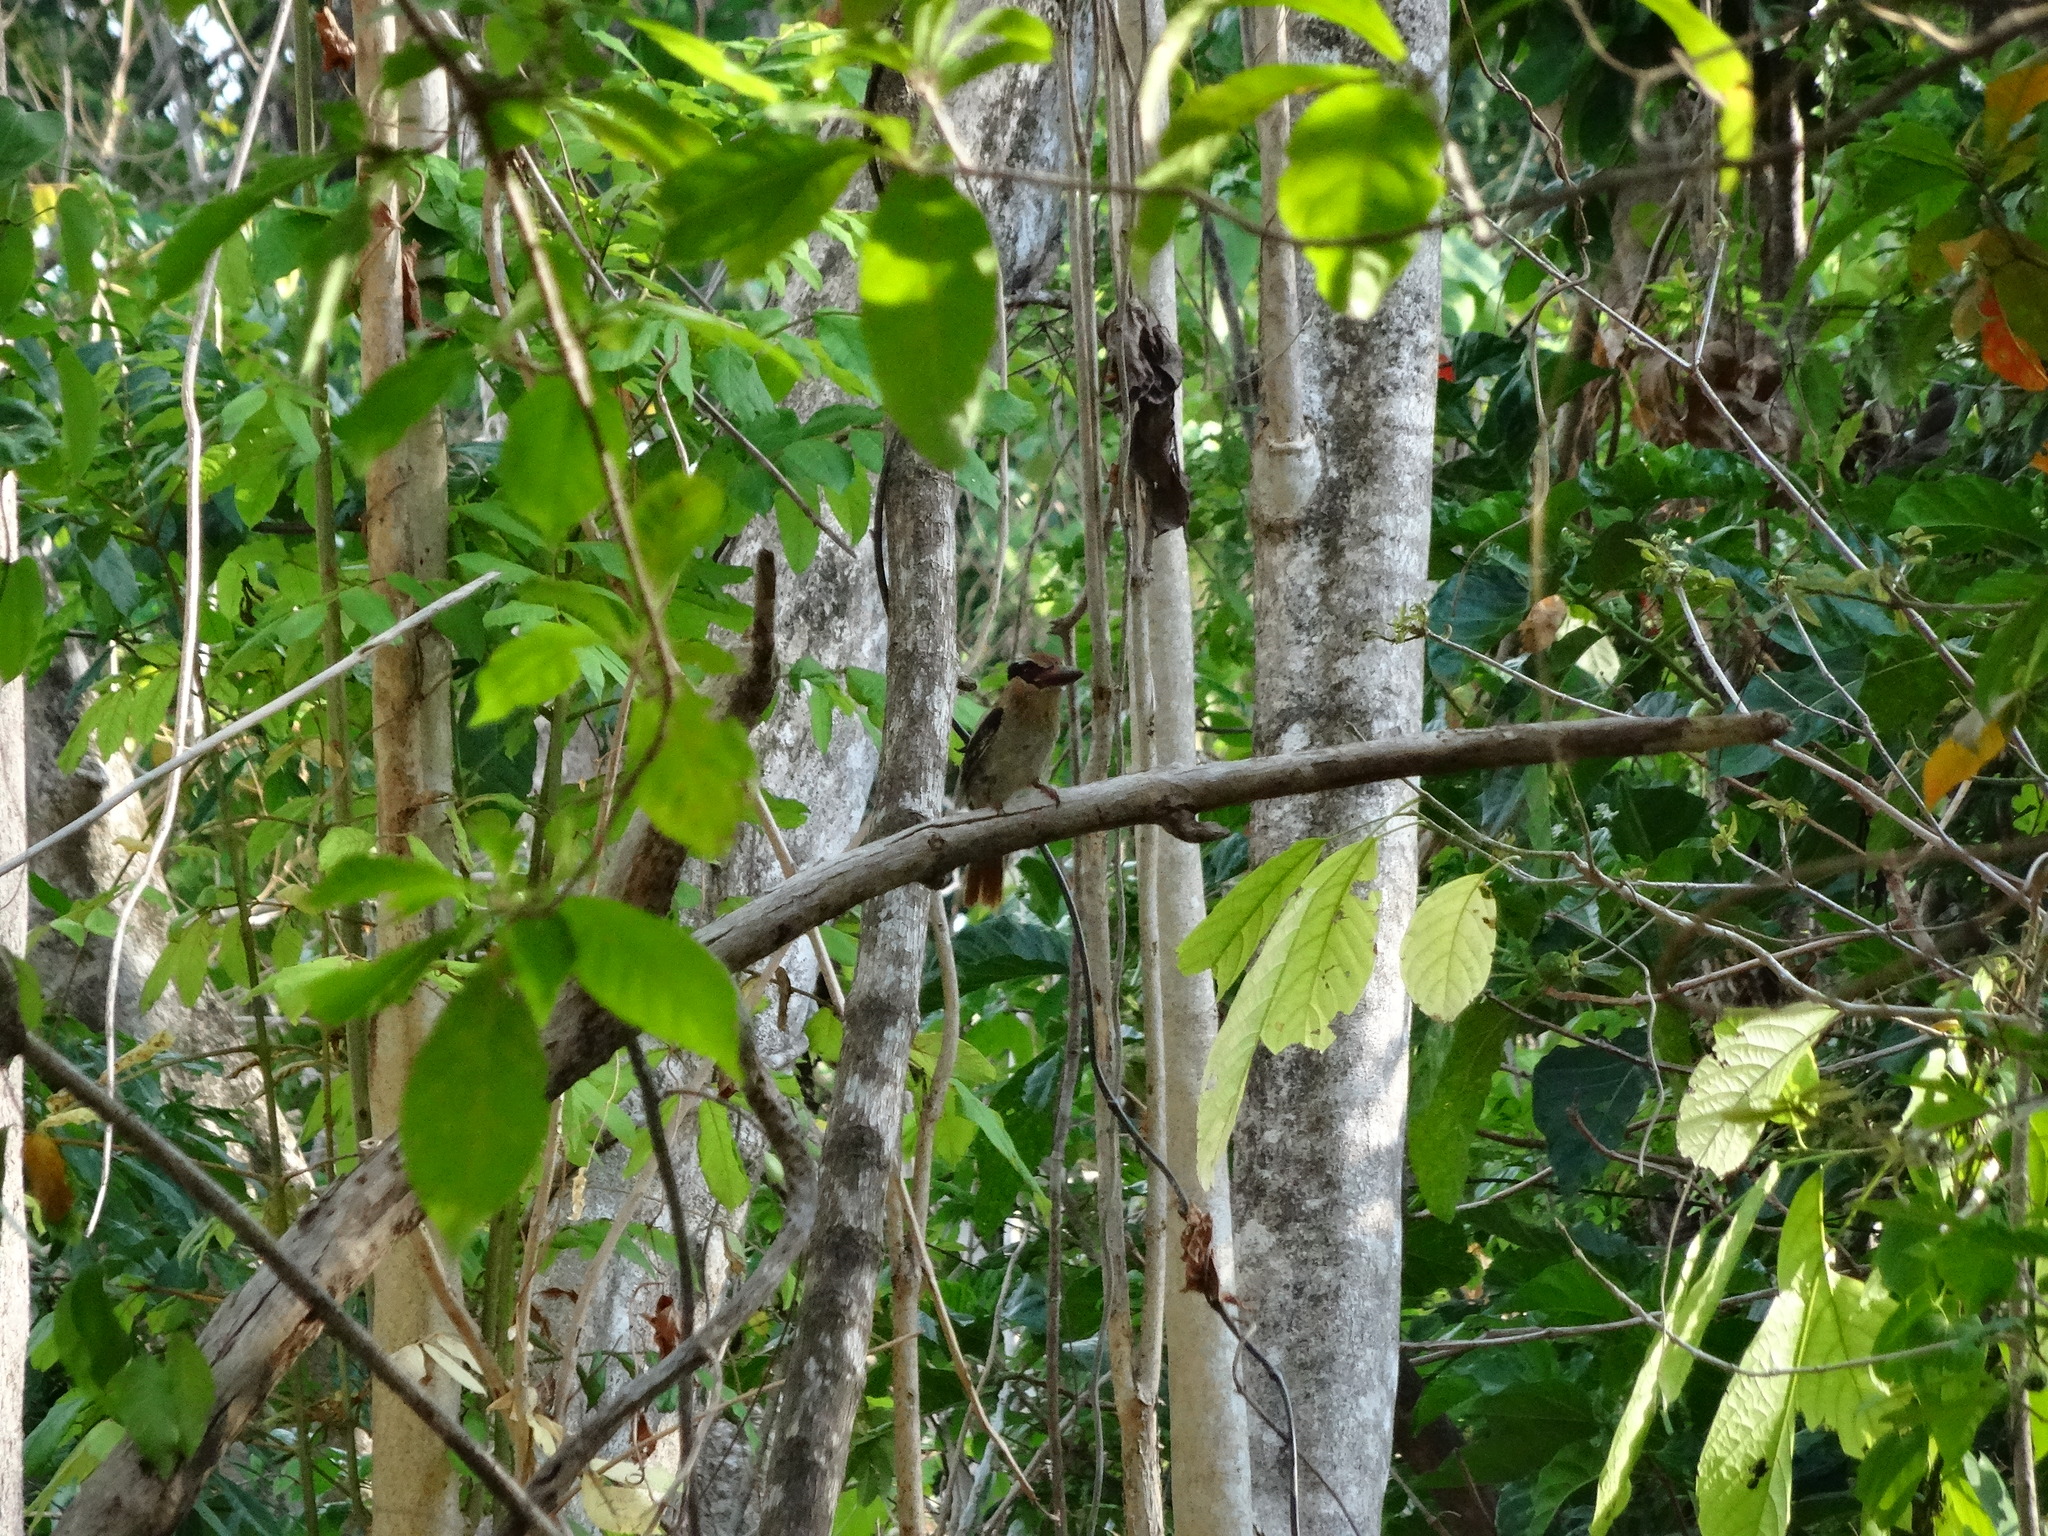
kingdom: Animalia
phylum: Chordata
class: Aves
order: Coraciiformes
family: Alcedinidae
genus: Cittura
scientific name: Cittura cyanotis
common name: Lilac kingfisher
